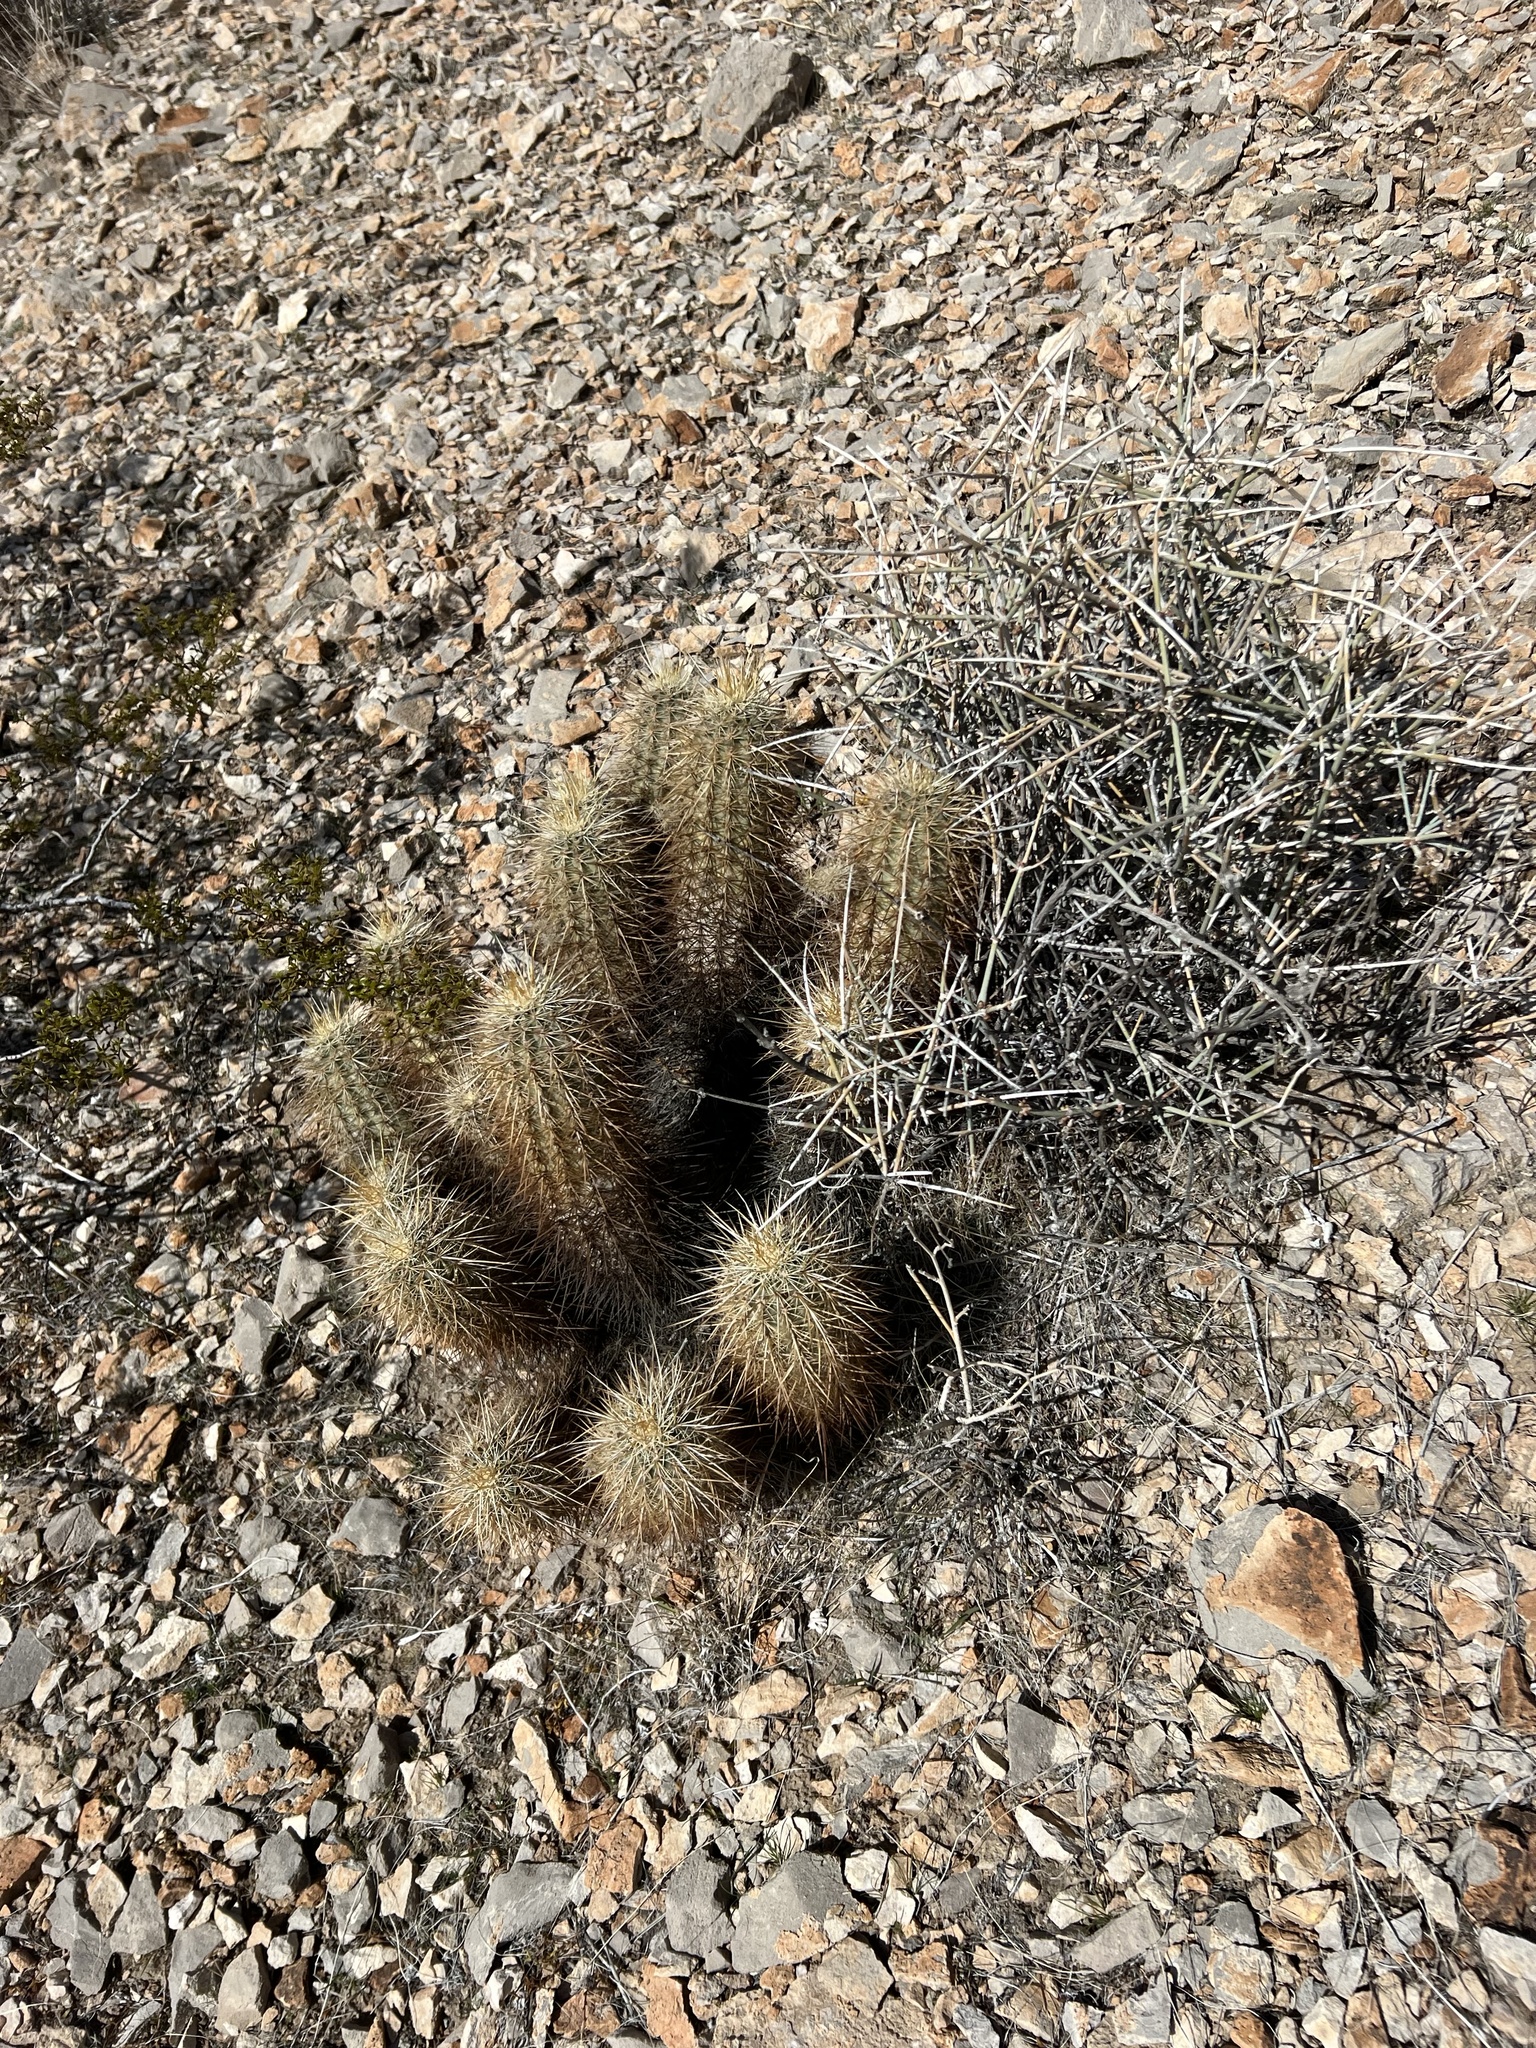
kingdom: Plantae
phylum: Tracheophyta
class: Magnoliopsida
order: Caryophyllales
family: Cactaceae
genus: Echinocereus
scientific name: Echinocereus engelmannii
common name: Engelmann's hedgehog cactus
